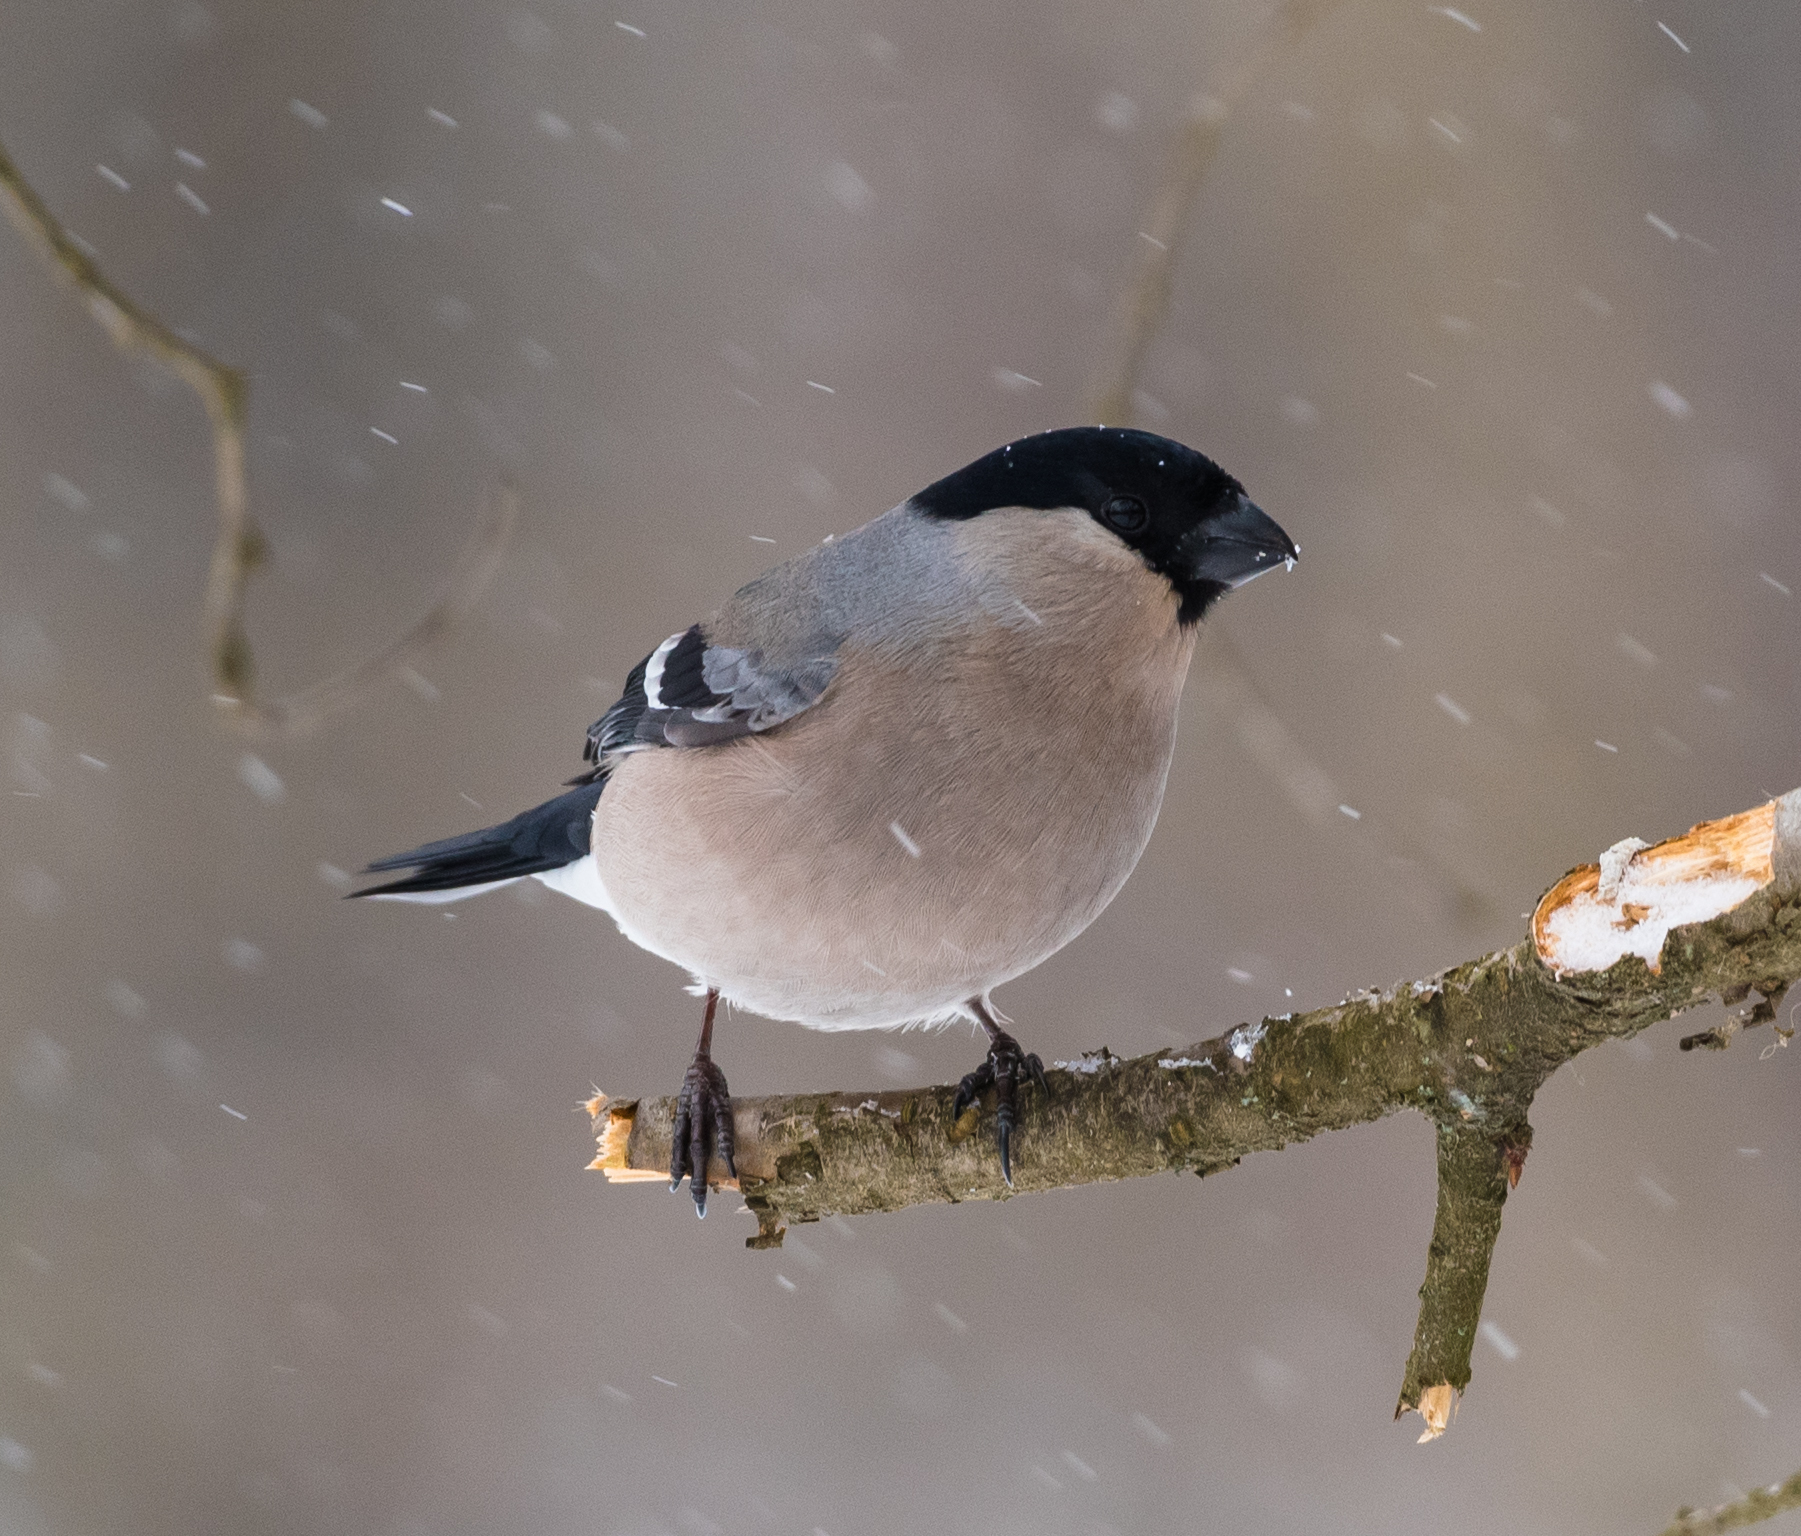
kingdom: Animalia
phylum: Chordata
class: Aves
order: Passeriformes
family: Fringillidae
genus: Pyrrhula
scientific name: Pyrrhula pyrrhula
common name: Eurasian bullfinch
